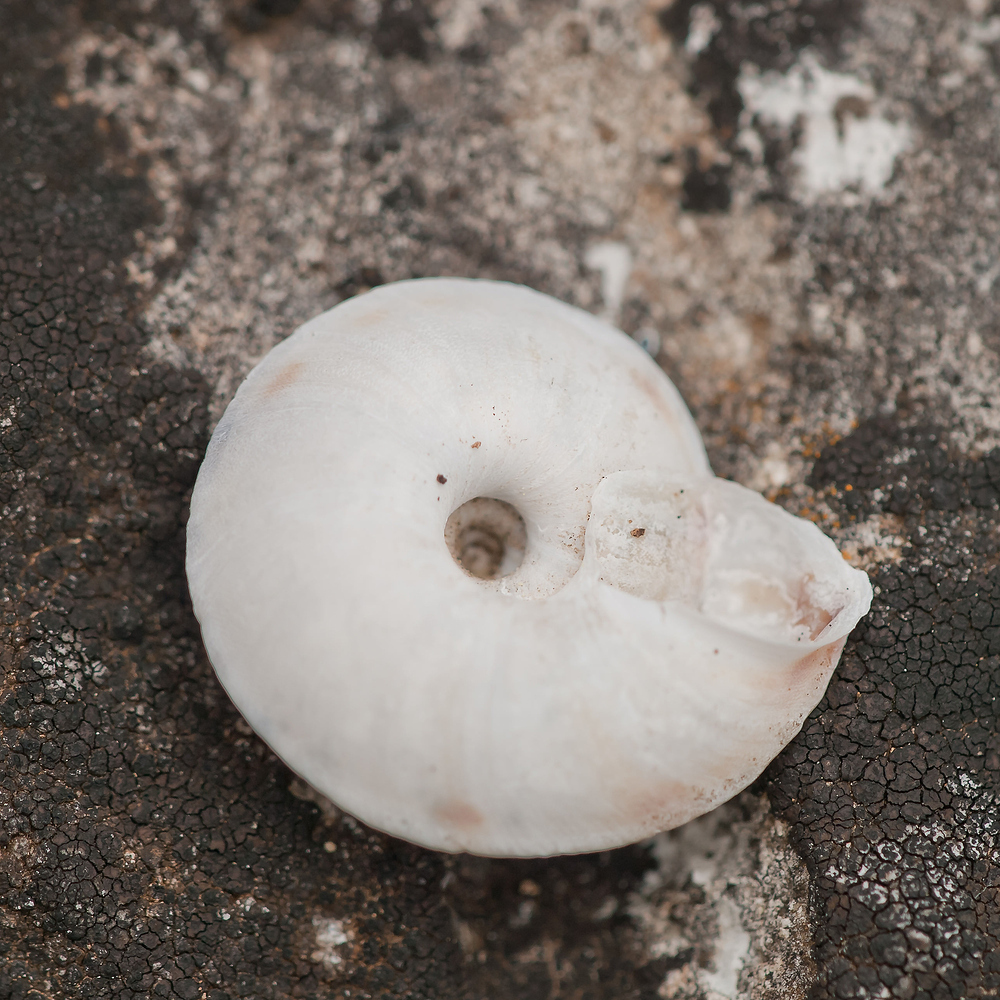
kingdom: Animalia
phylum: Mollusca
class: Gastropoda
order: Stylommatophora
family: Helicidae
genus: Helicigona
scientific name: Helicigona lapicida
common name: Lapidary snail
